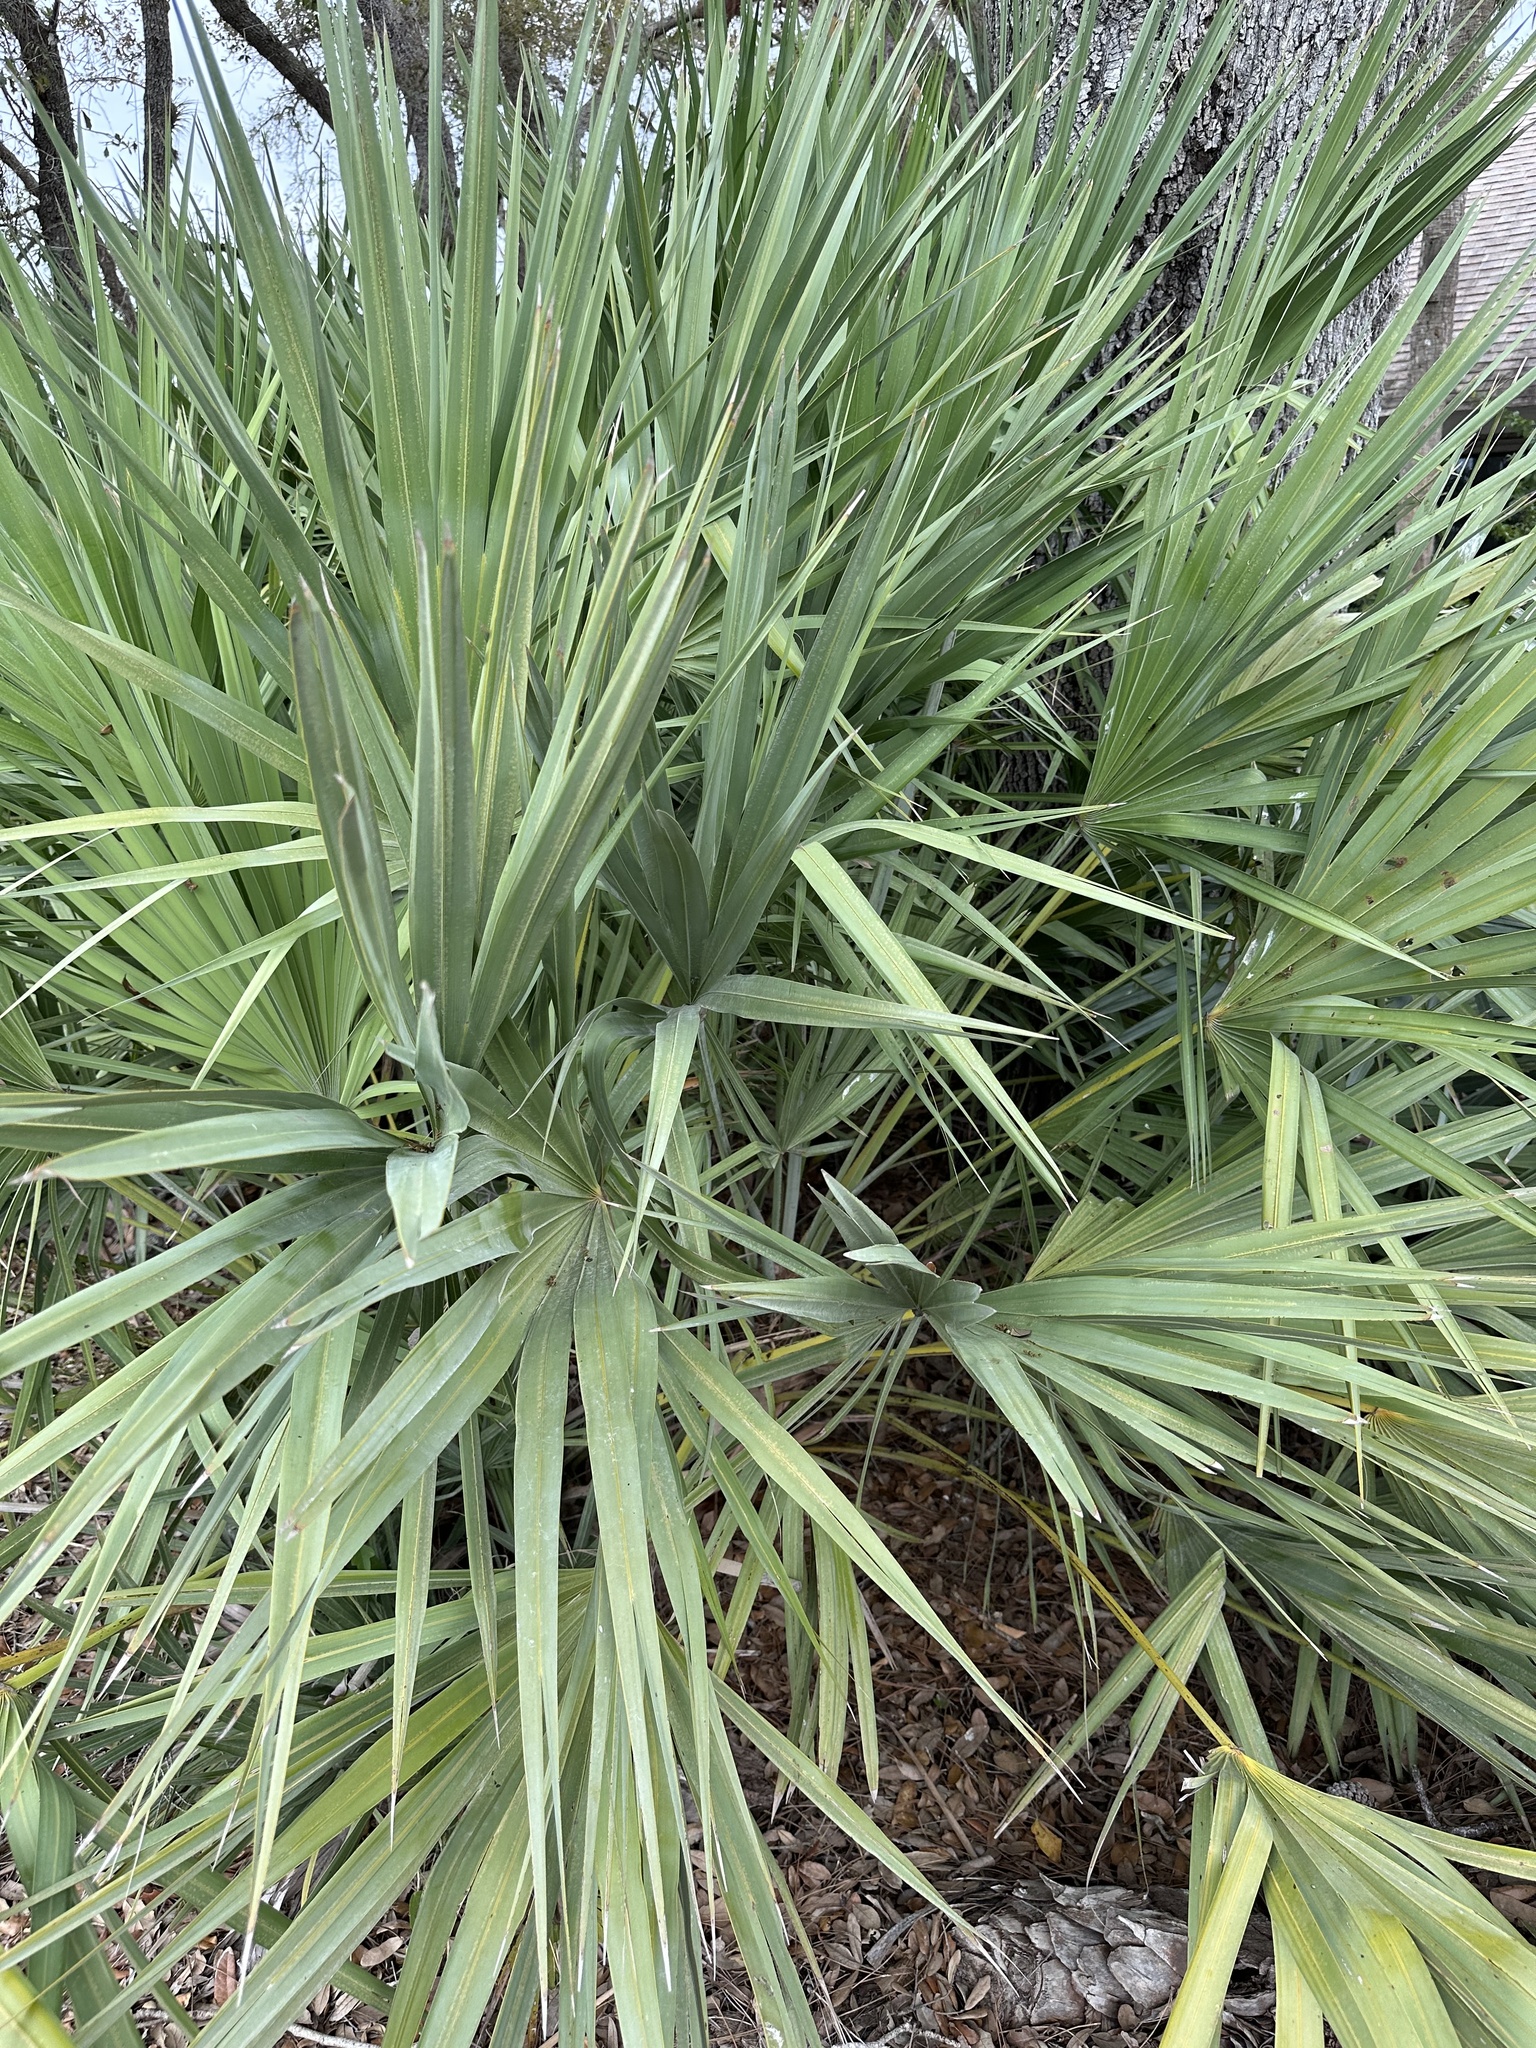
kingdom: Plantae
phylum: Tracheophyta
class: Liliopsida
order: Arecales
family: Arecaceae
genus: Serenoa
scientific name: Serenoa repens
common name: Saw-palmetto
